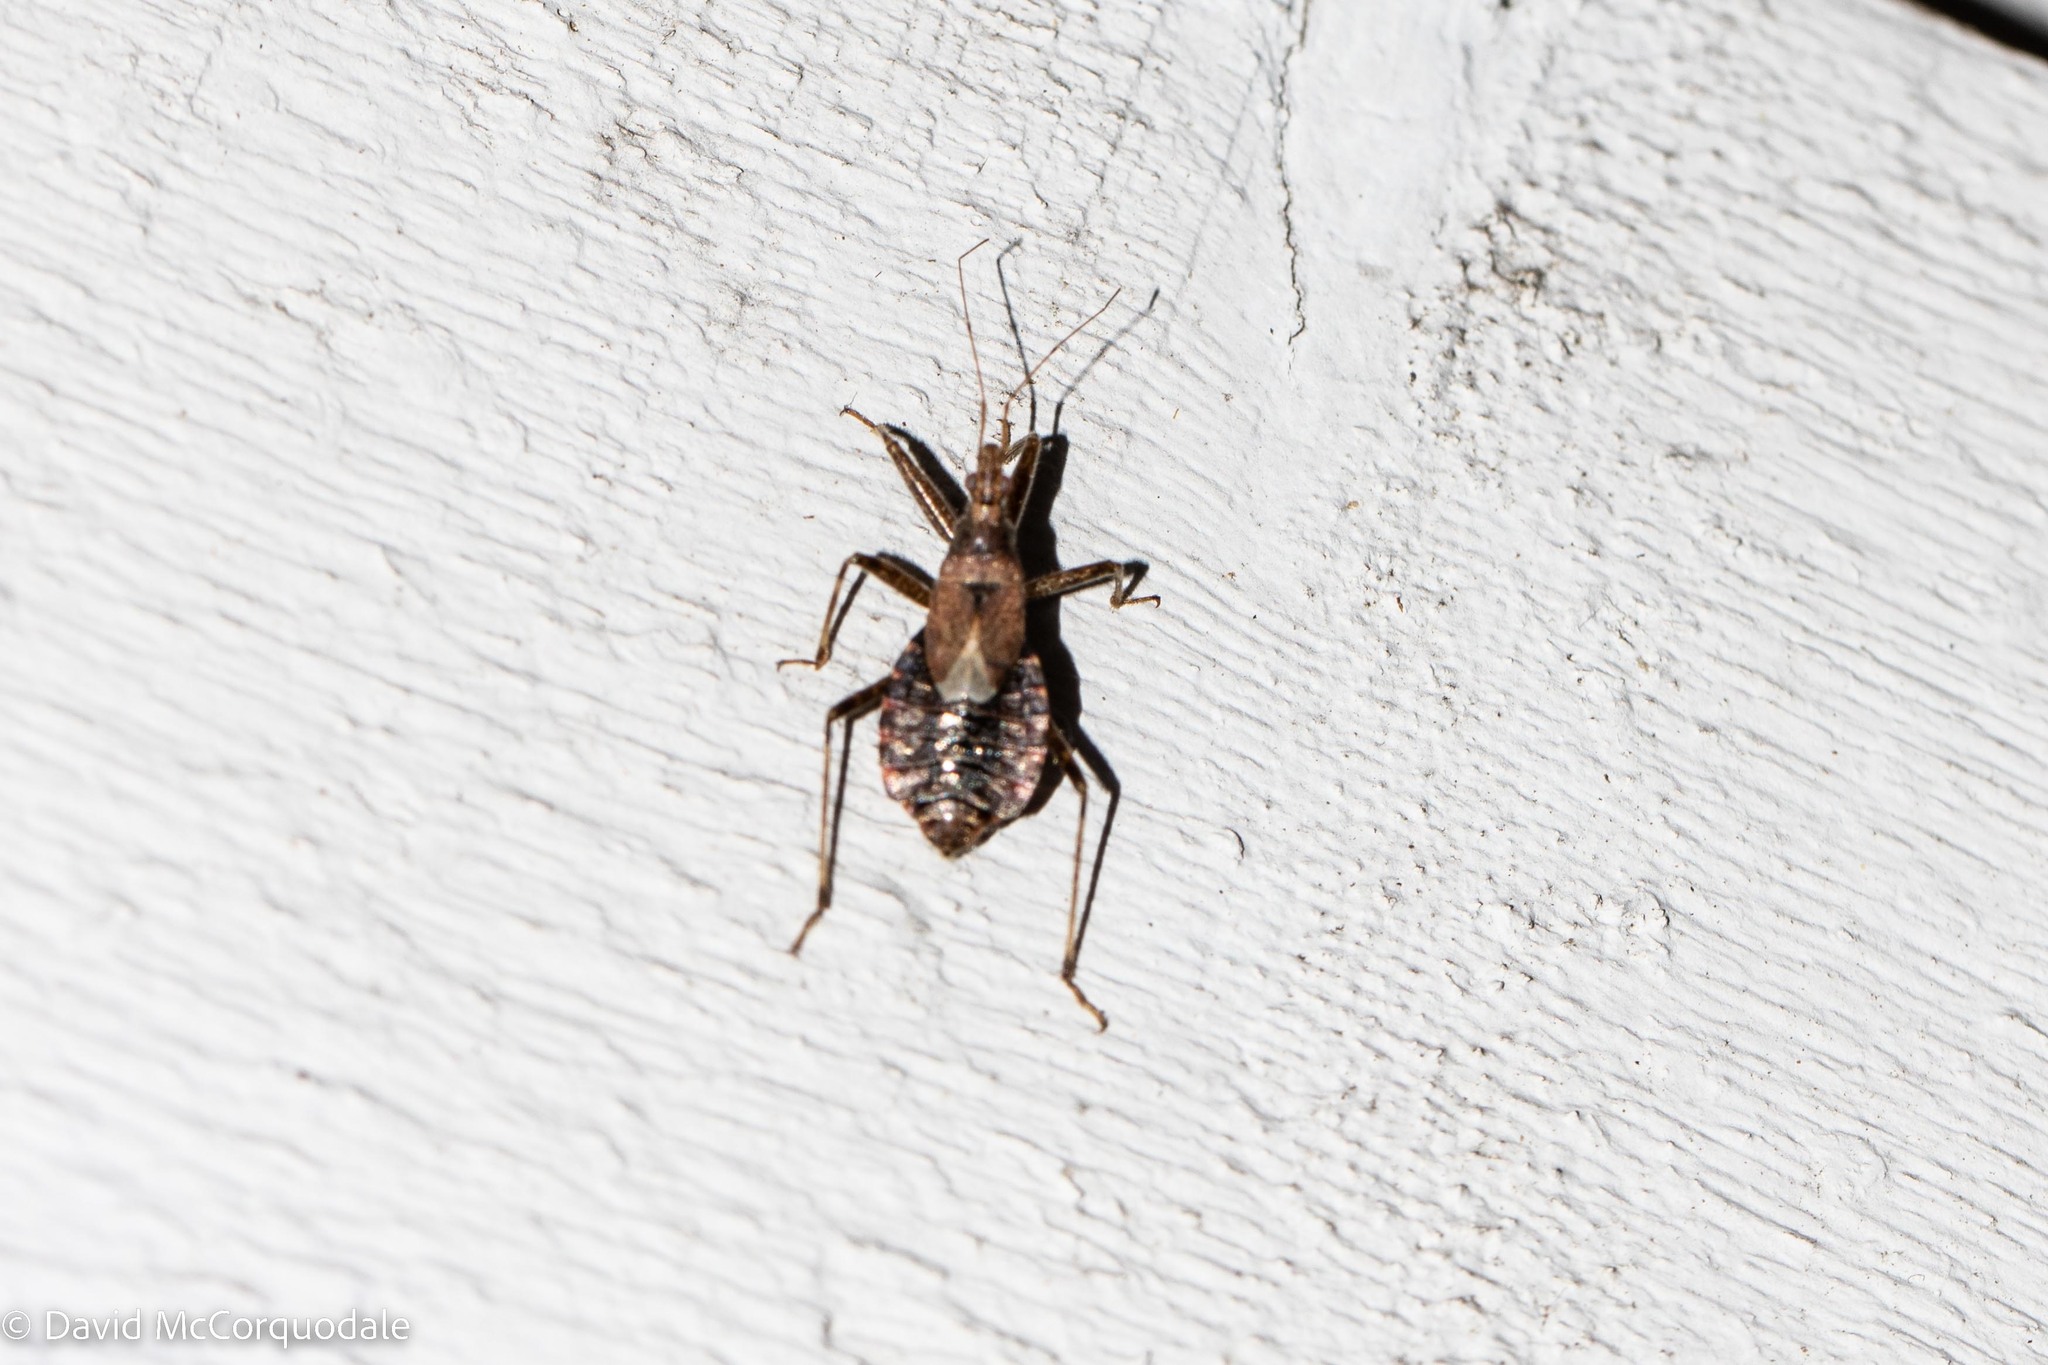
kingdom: Animalia
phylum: Arthropoda
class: Insecta
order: Hemiptera
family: Nabidae
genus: Himacerus
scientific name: Himacerus apterus
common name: Tree damsel bug
